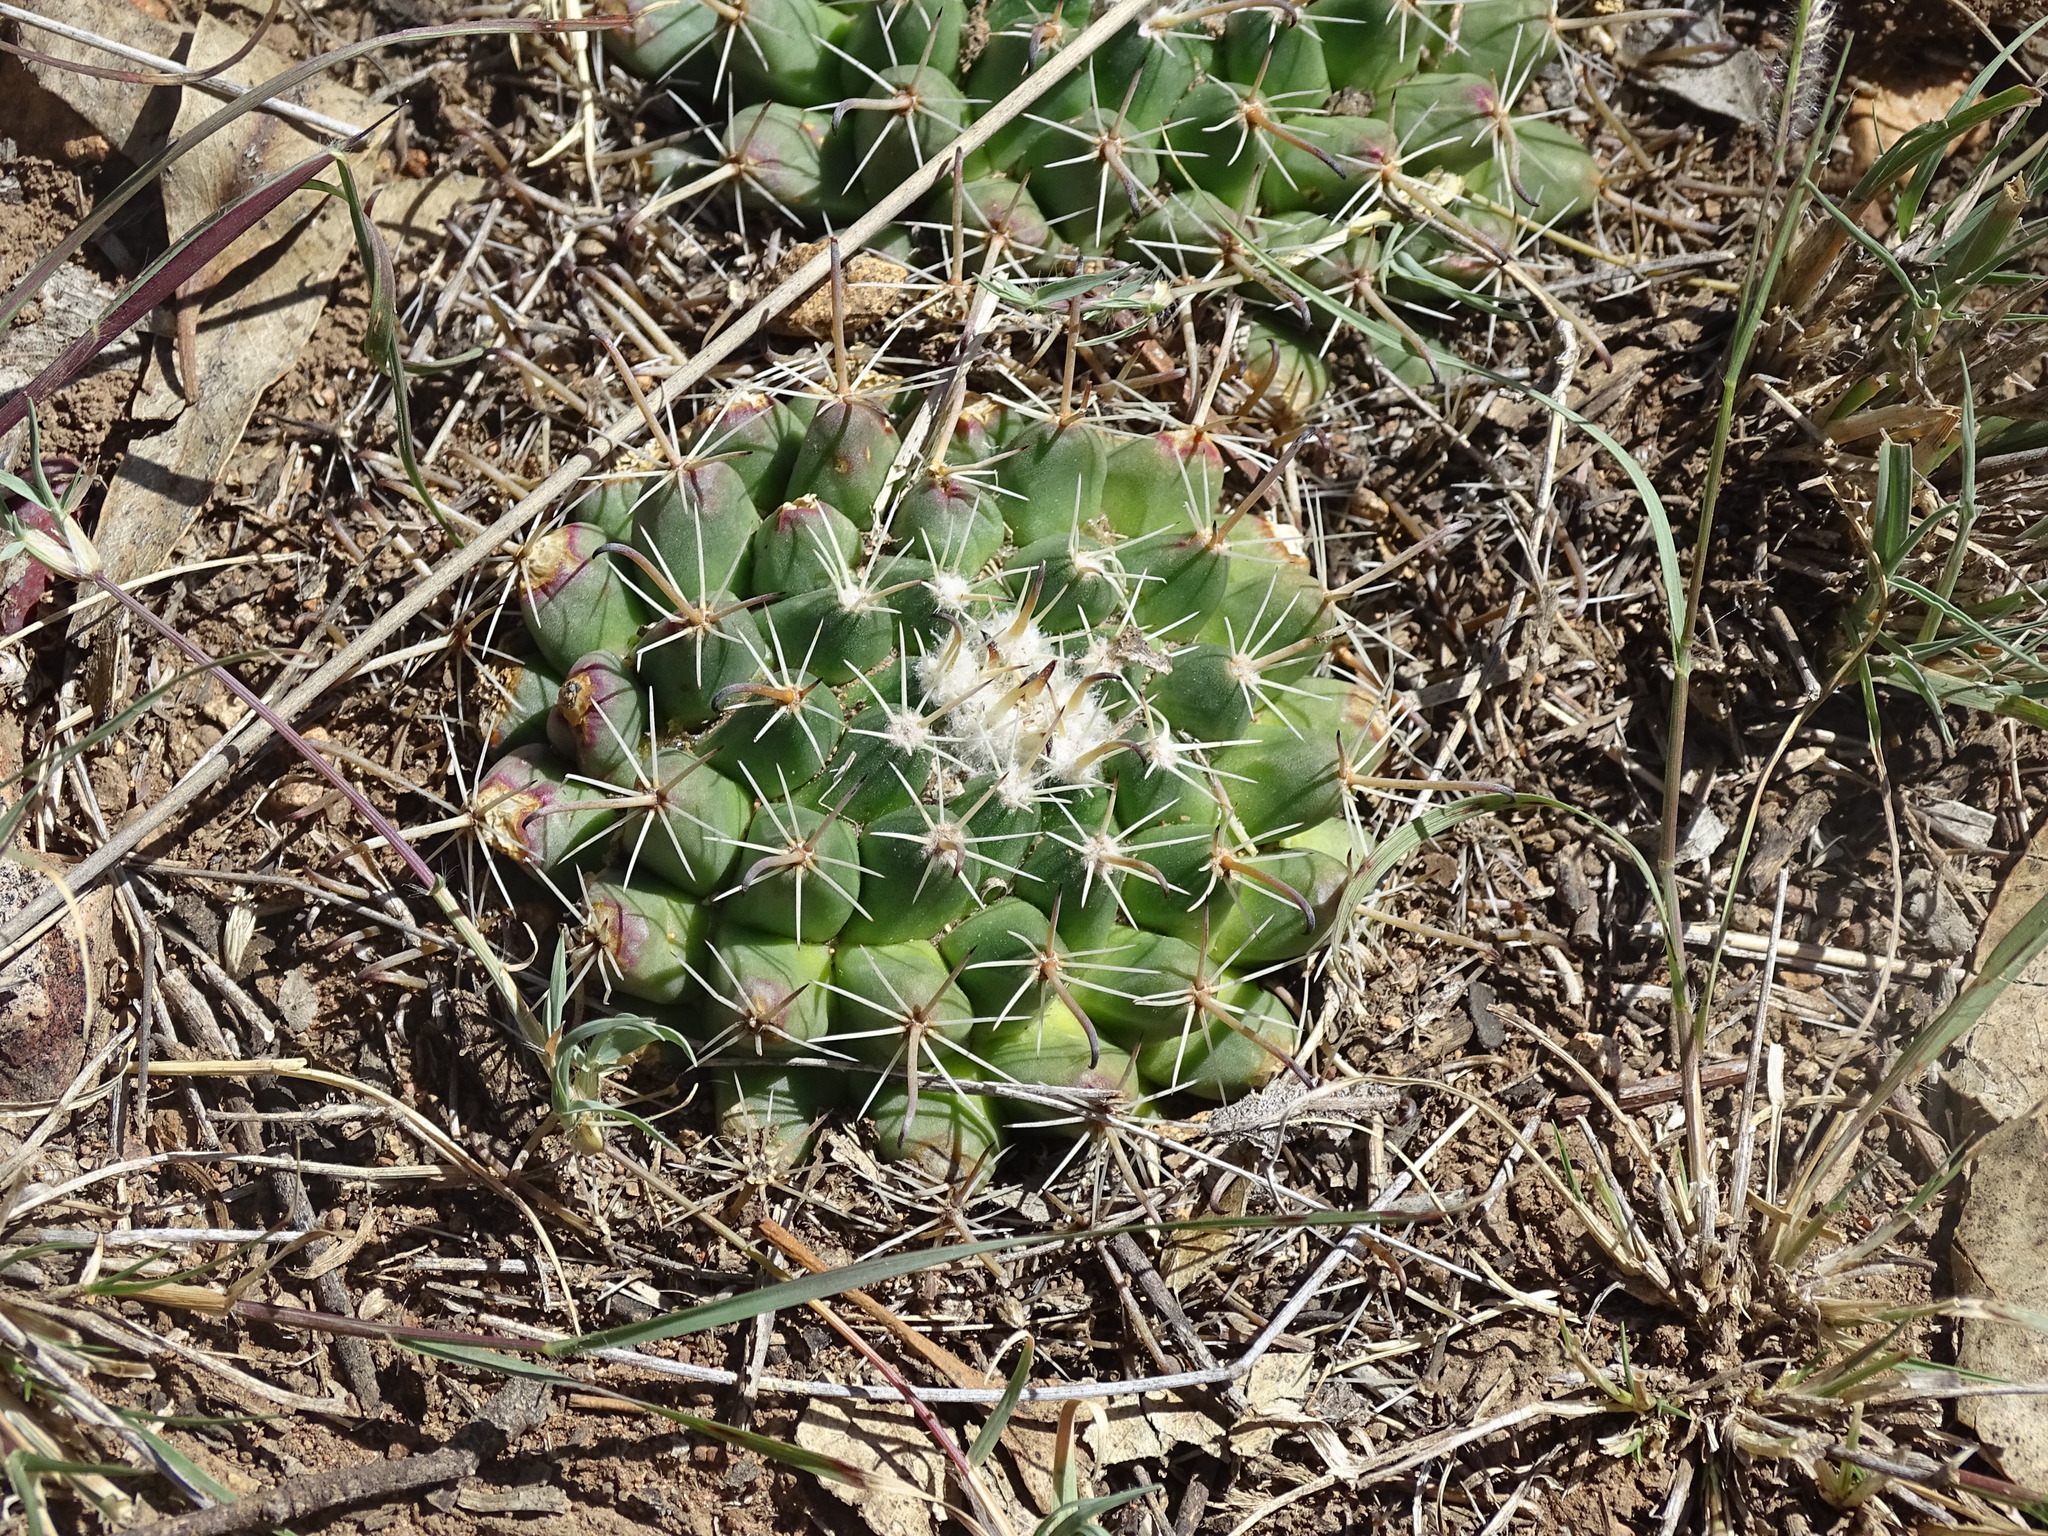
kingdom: Plantae
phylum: Tracheophyta
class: Magnoliopsida
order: Caryophyllales
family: Cactaceae
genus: Mammillaria
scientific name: Mammillaria uncinata
